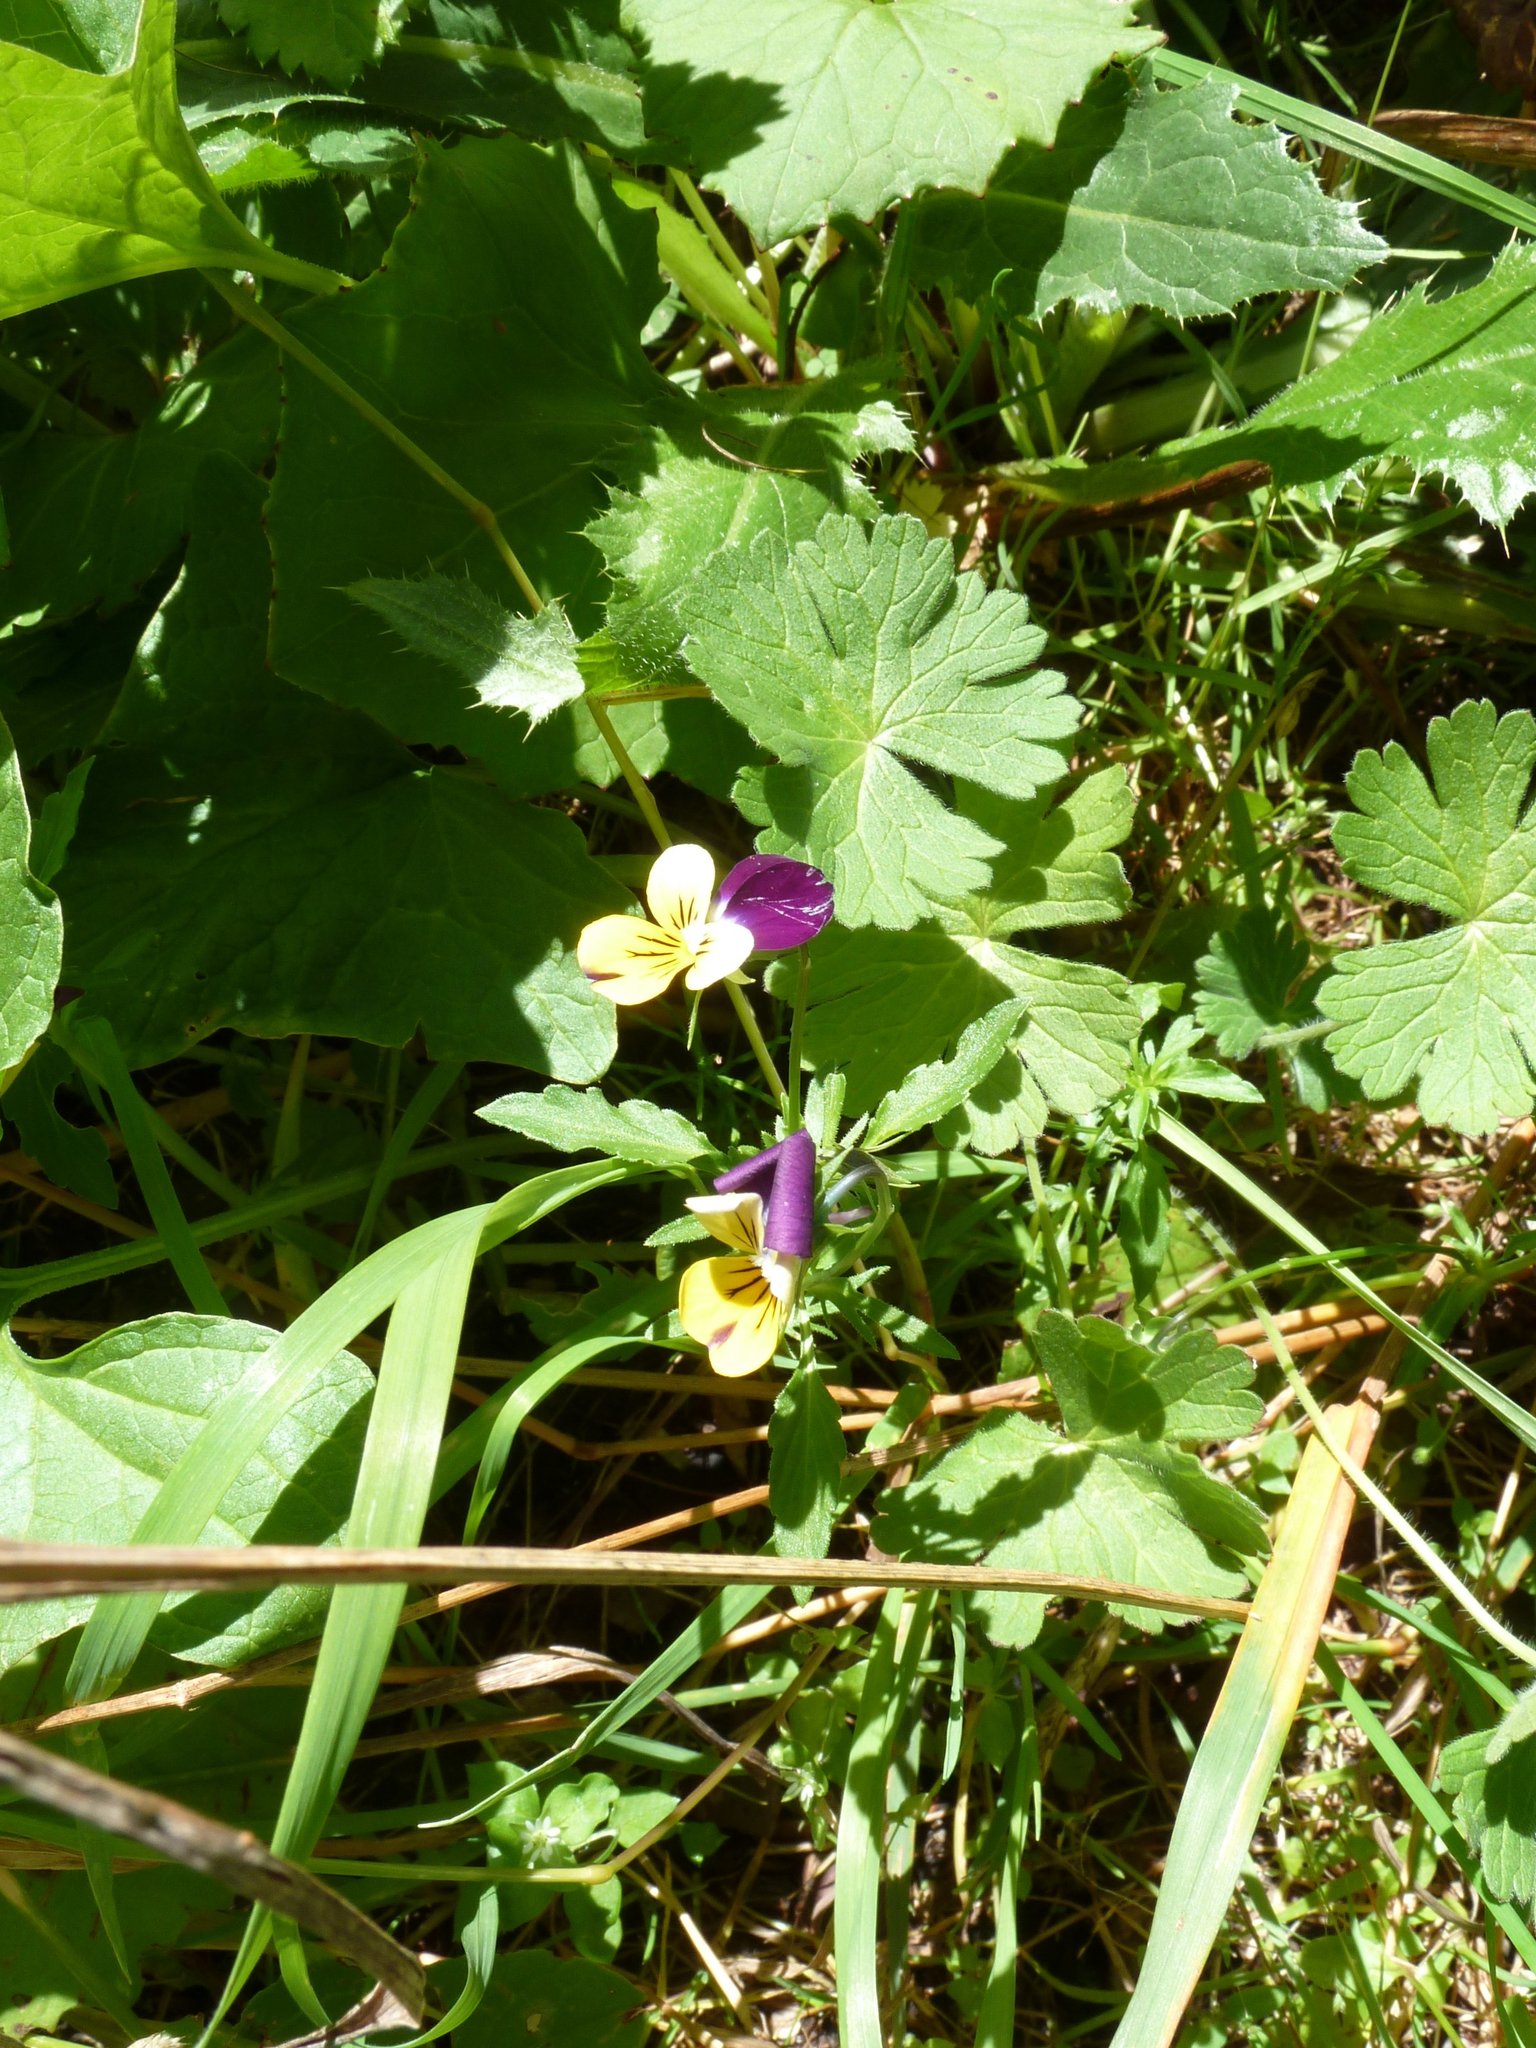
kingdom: Plantae
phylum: Tracheophyta
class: Magnoliopsida
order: Malpighiales
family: Violaceae
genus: Viola
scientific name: Viola tricolor
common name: Pansy
